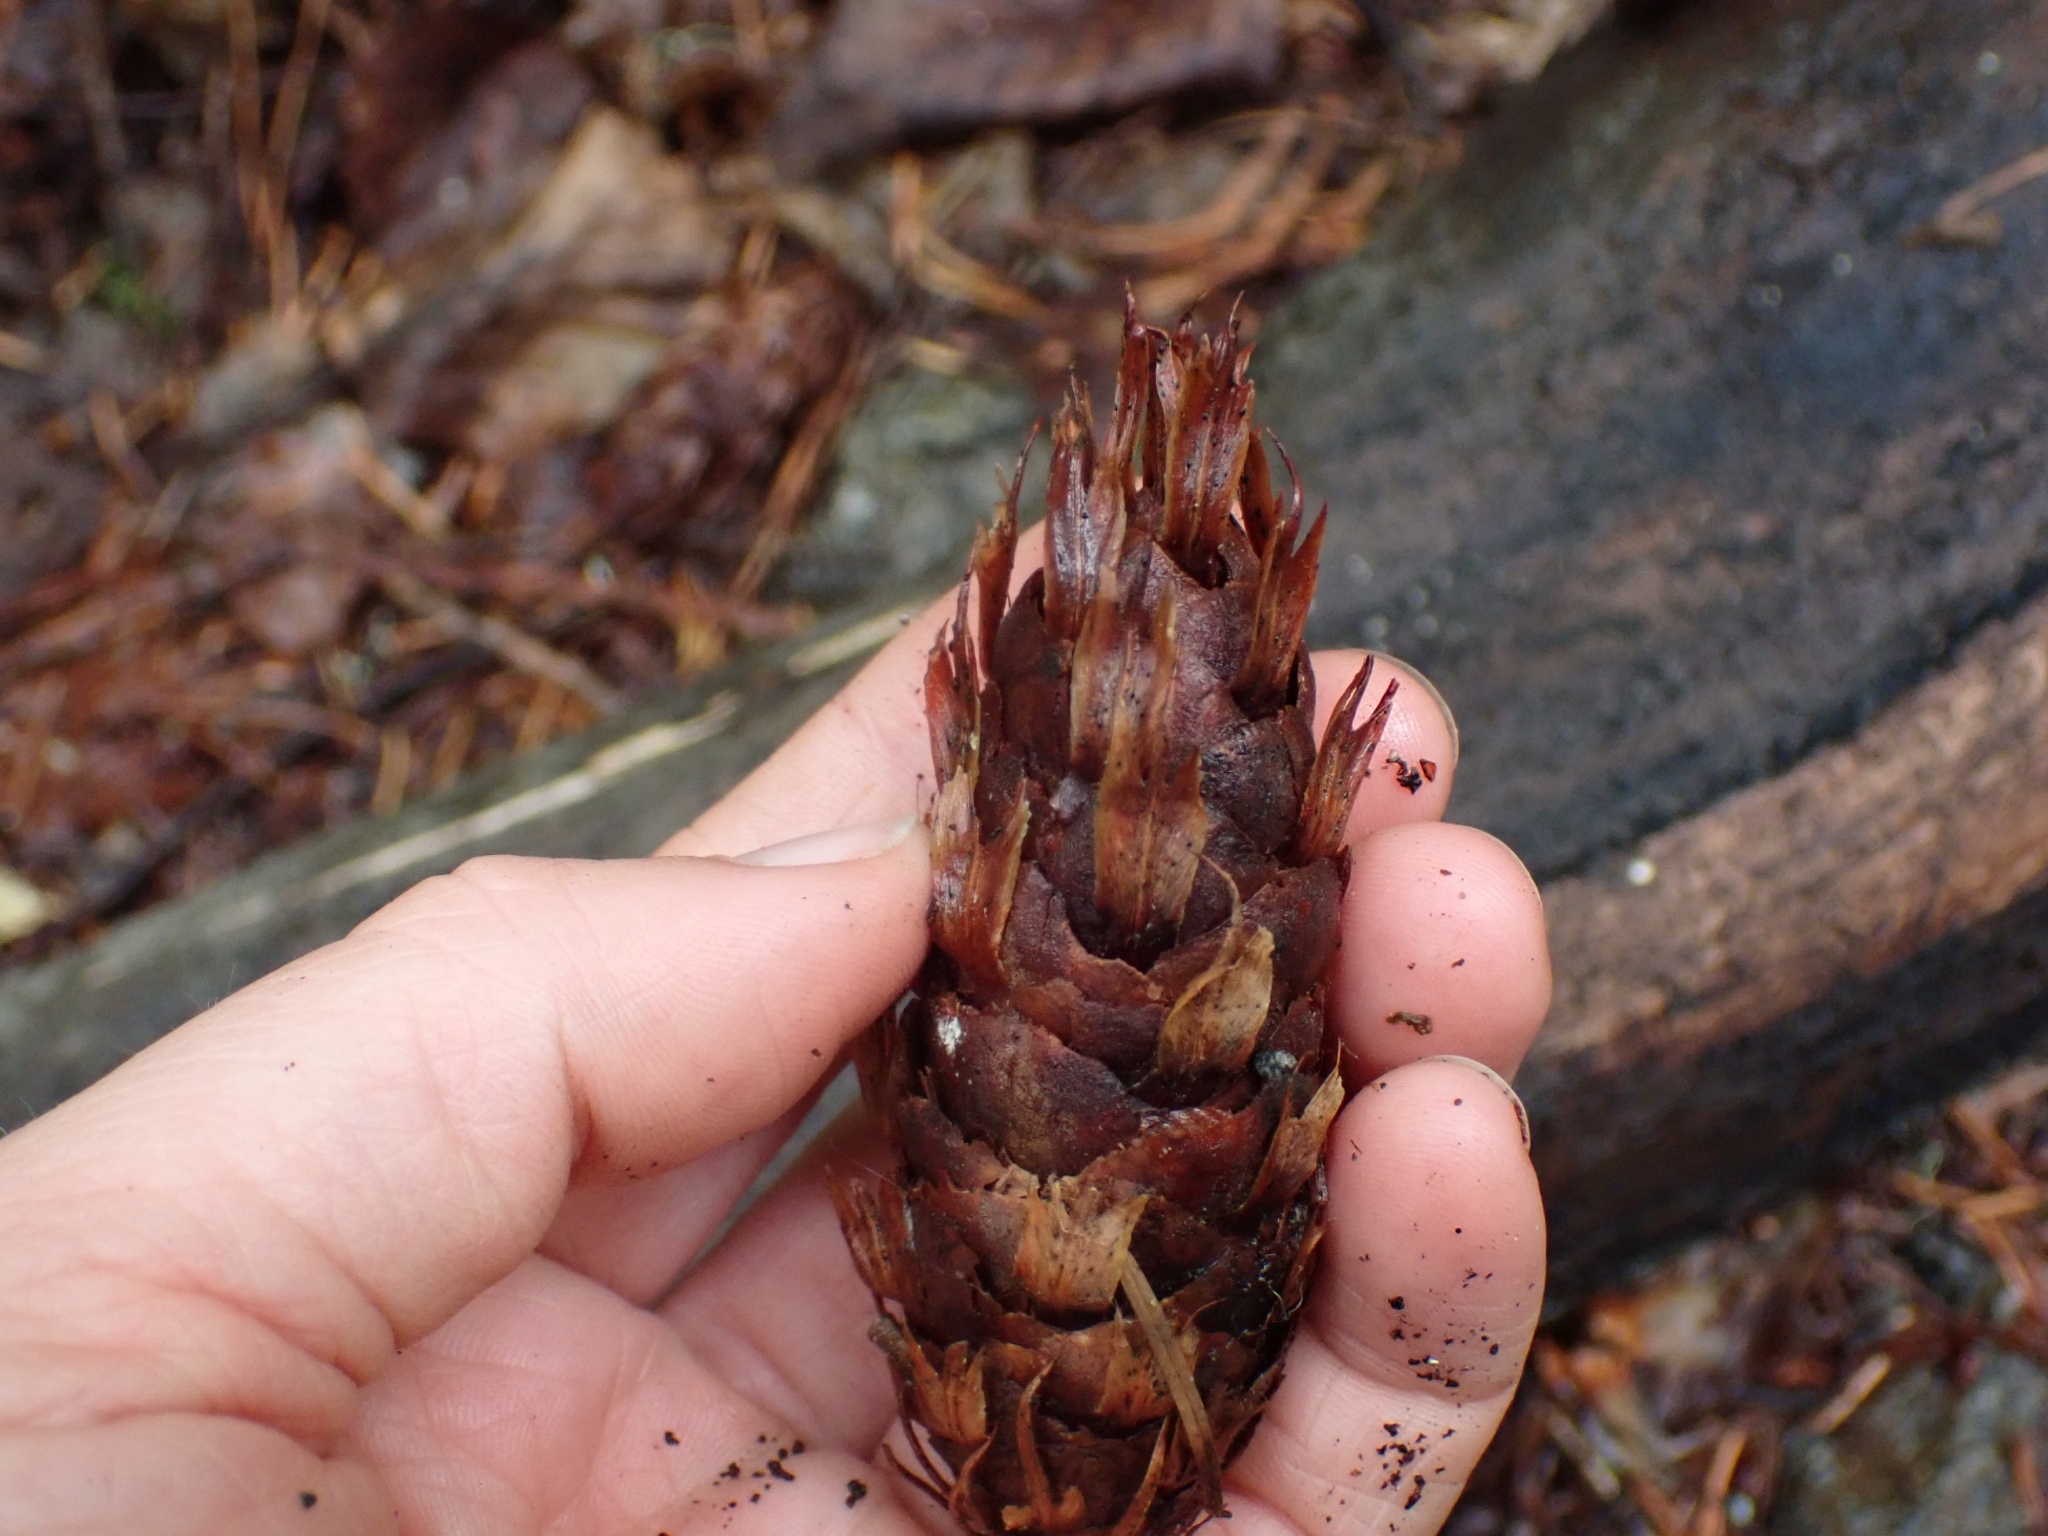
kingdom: Plantae
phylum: Tracheophyta
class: Pinopsida
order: Pinales
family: Pinaceae
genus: Pseudotsuga
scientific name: Pseudotsuga menziesii
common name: Douglas fir
